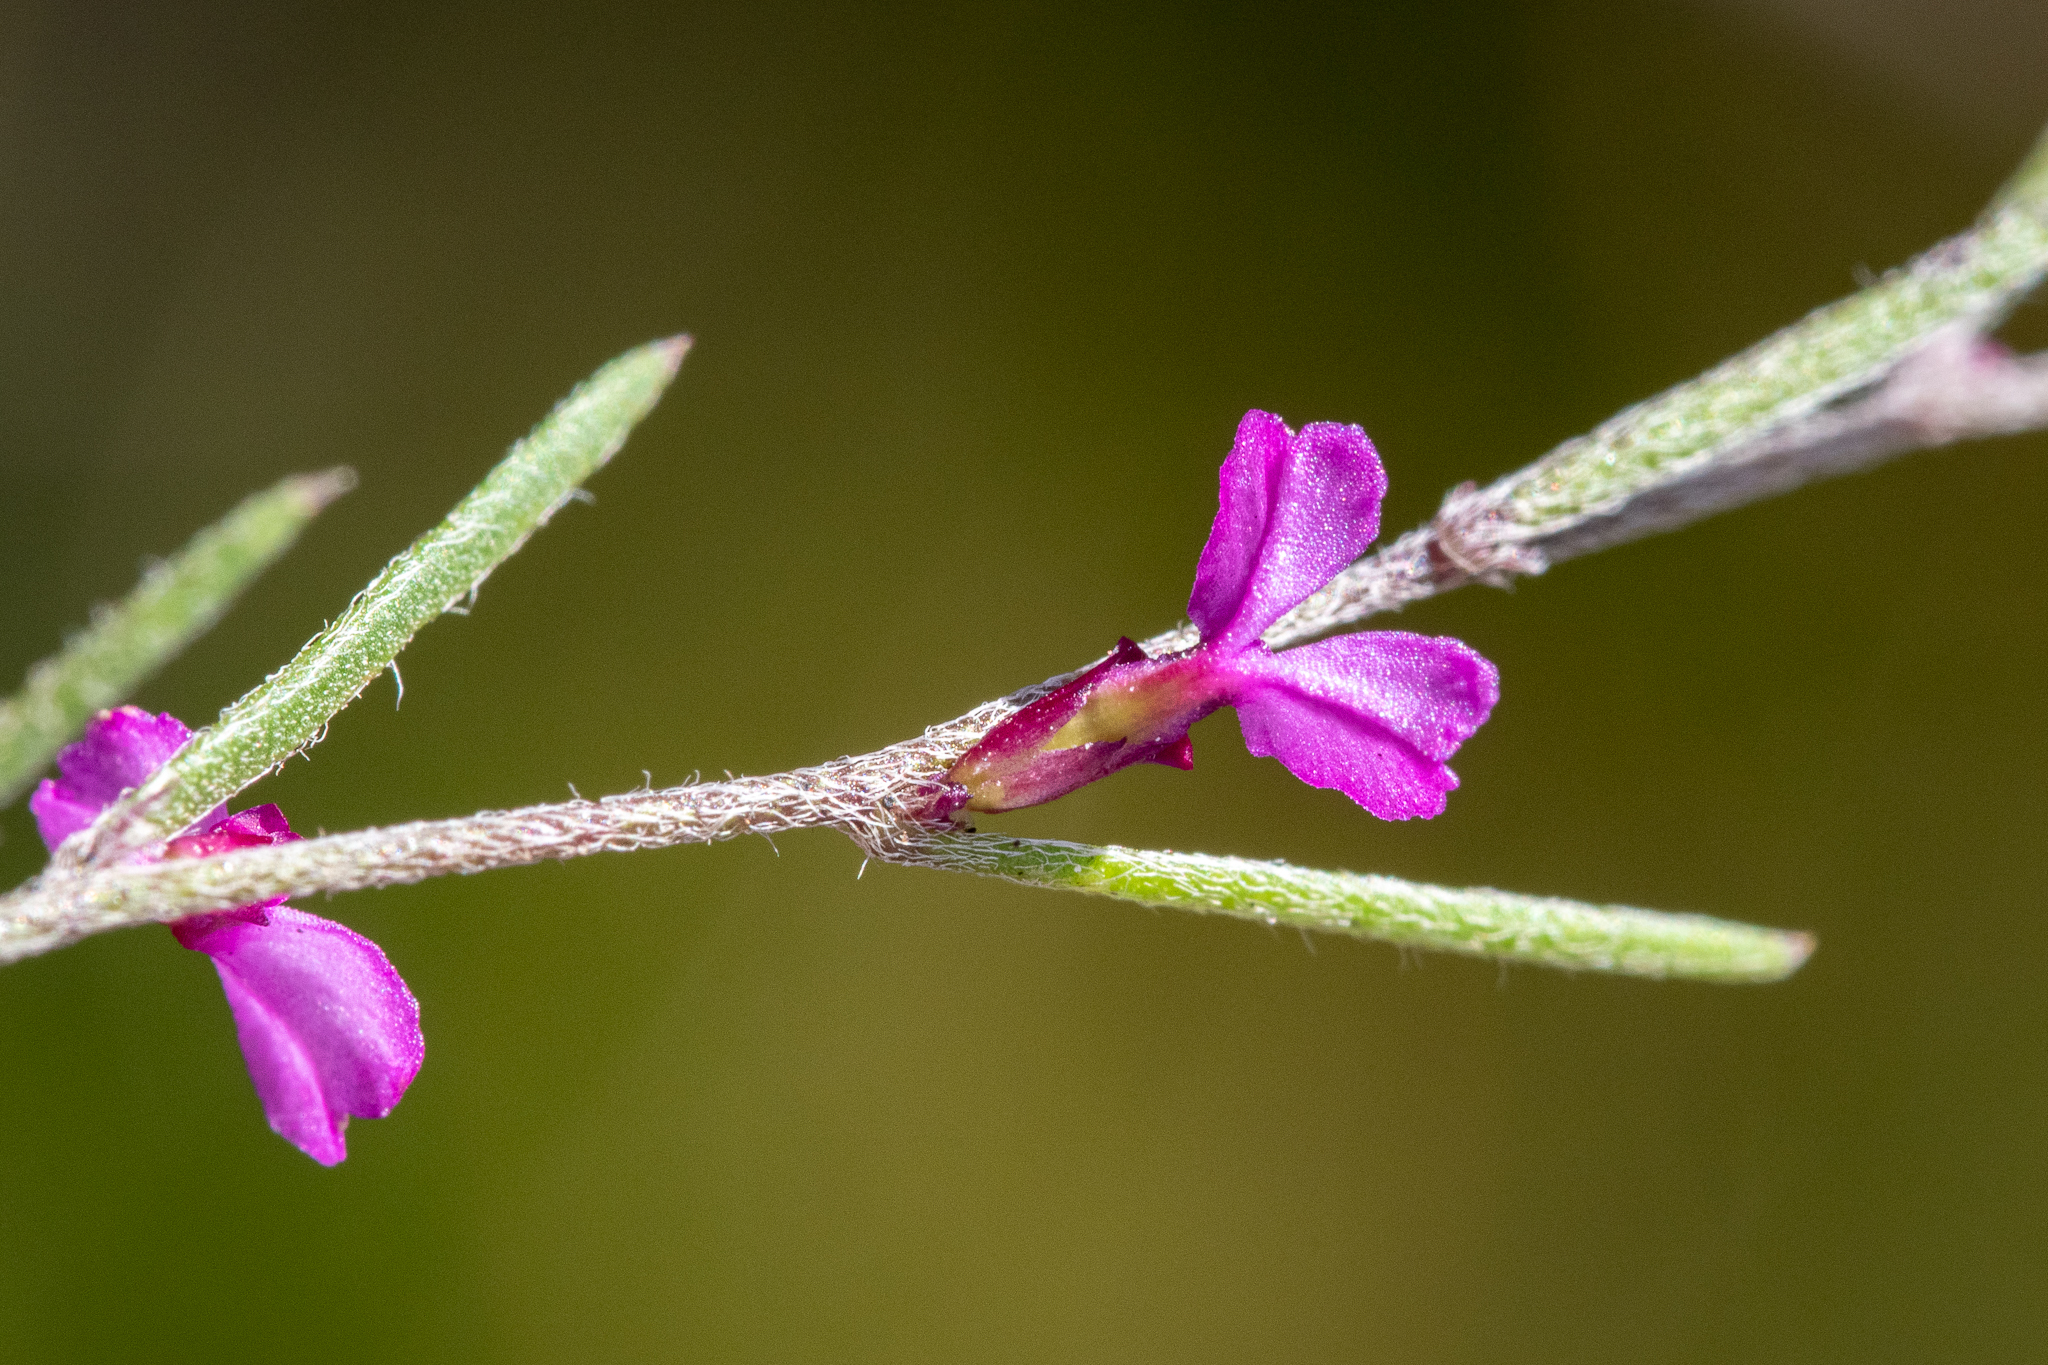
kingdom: Plantae
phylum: Tracheophyta
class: Magnoliopsida
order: Fabales
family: Polygalaceae
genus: Muraltia
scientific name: Muraltia minuta
